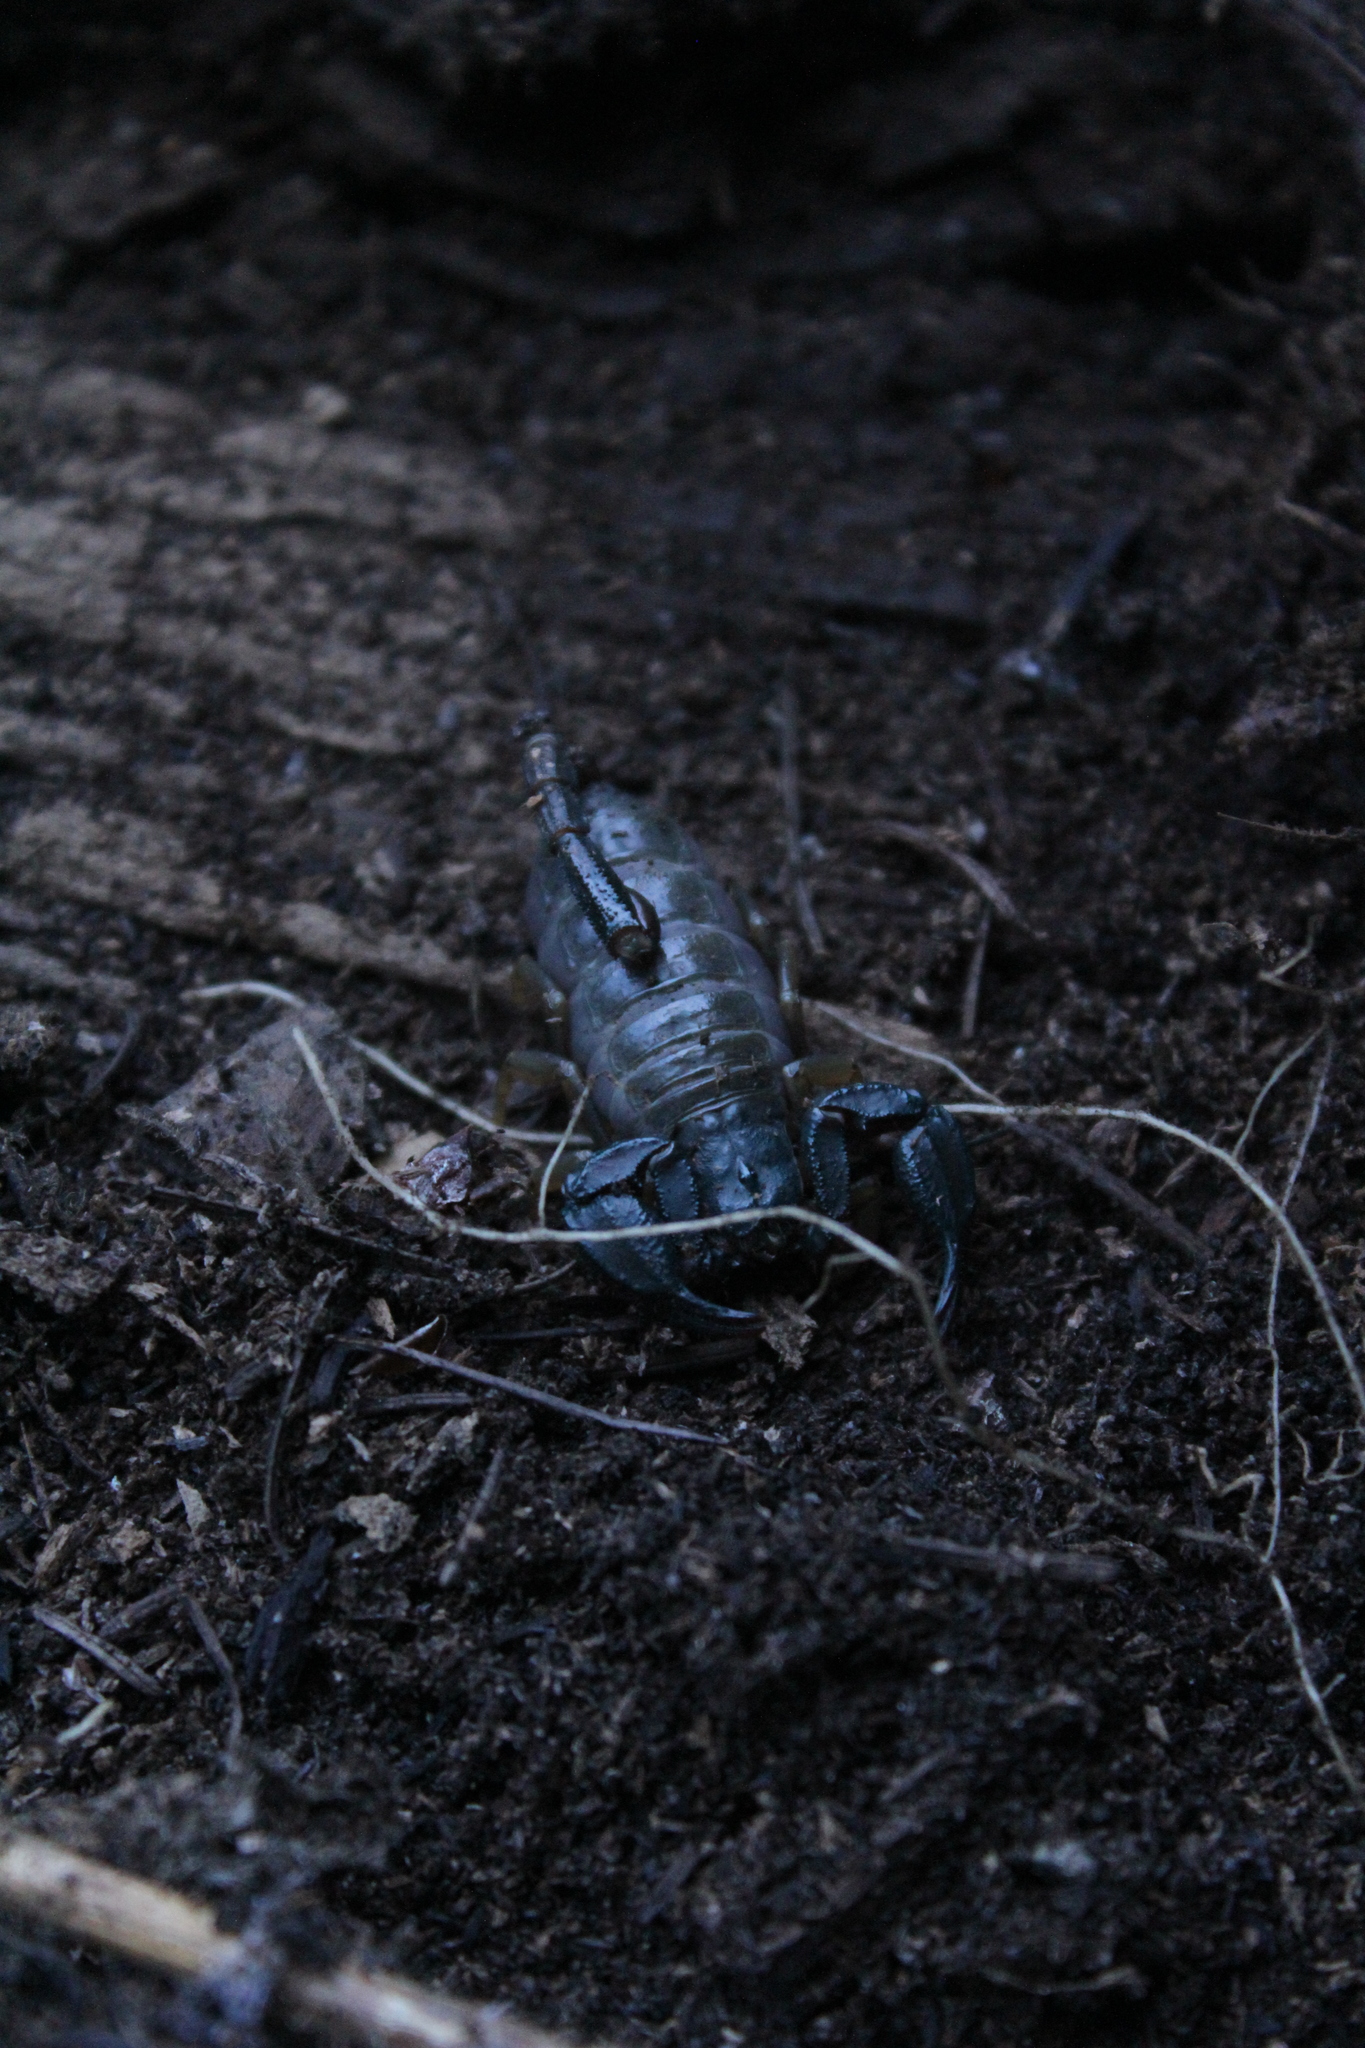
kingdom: Animalia
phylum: Arthropoda
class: Arachnida
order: Scorpiones
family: Chactidae
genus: Uroctonus
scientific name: Uroctonus mordax
